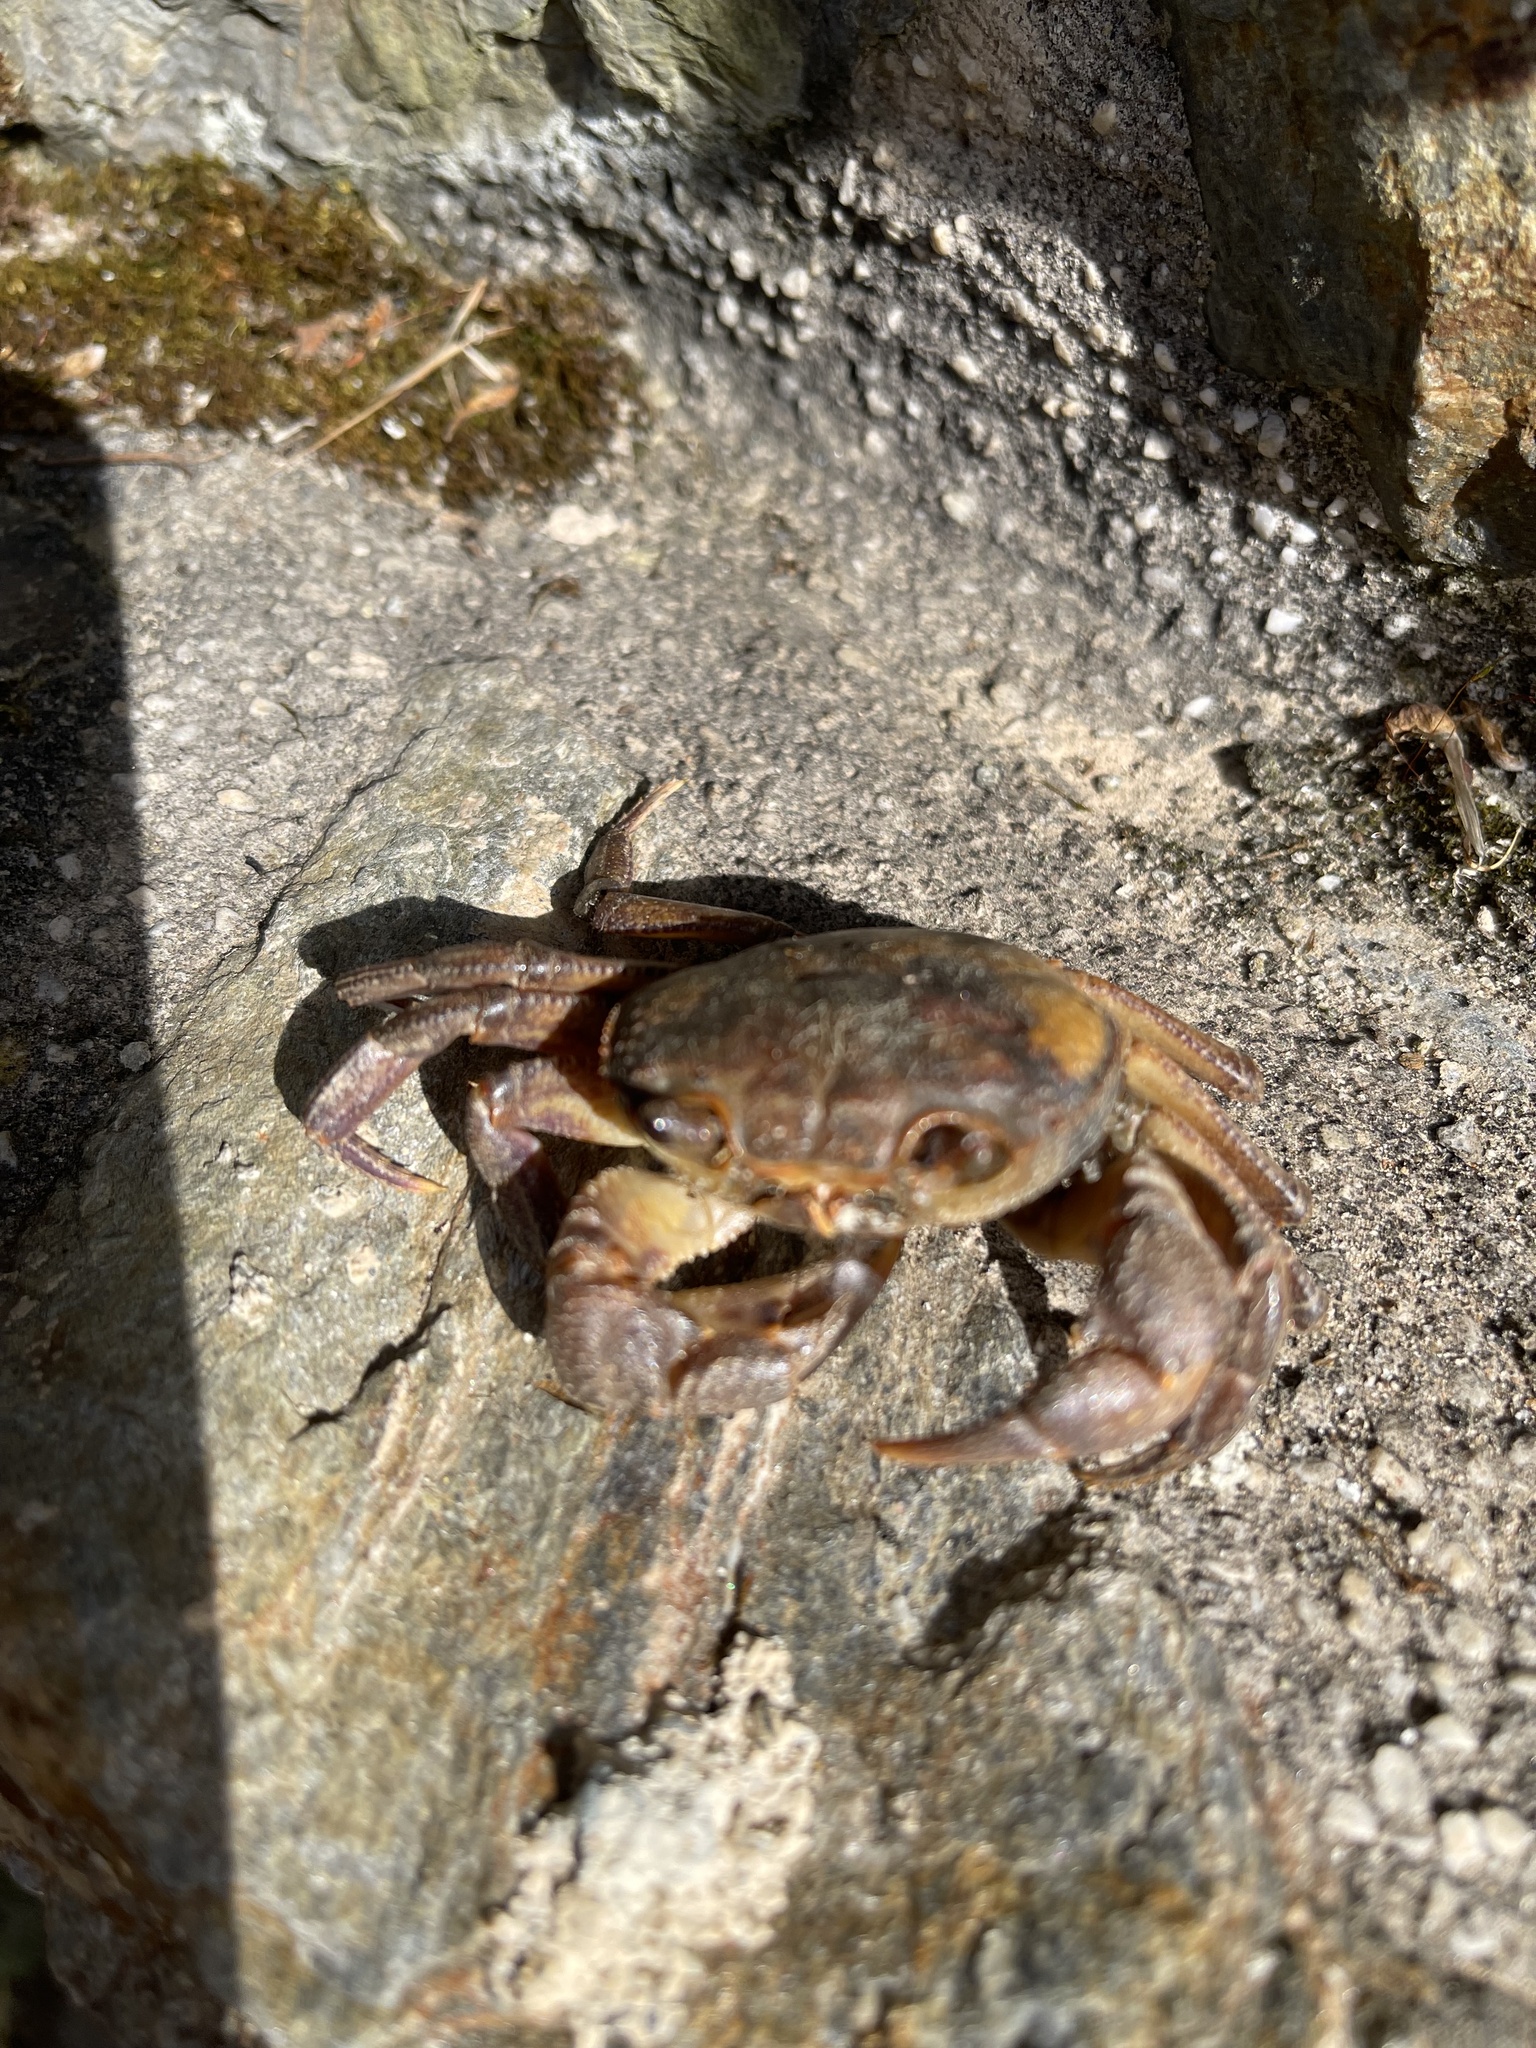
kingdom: Animalia
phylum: Arthropoda
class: Malacostraca
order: Decapoda
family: Potamidae
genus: Potamon
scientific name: Potamon fluviatile
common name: Italian freshwater crab
